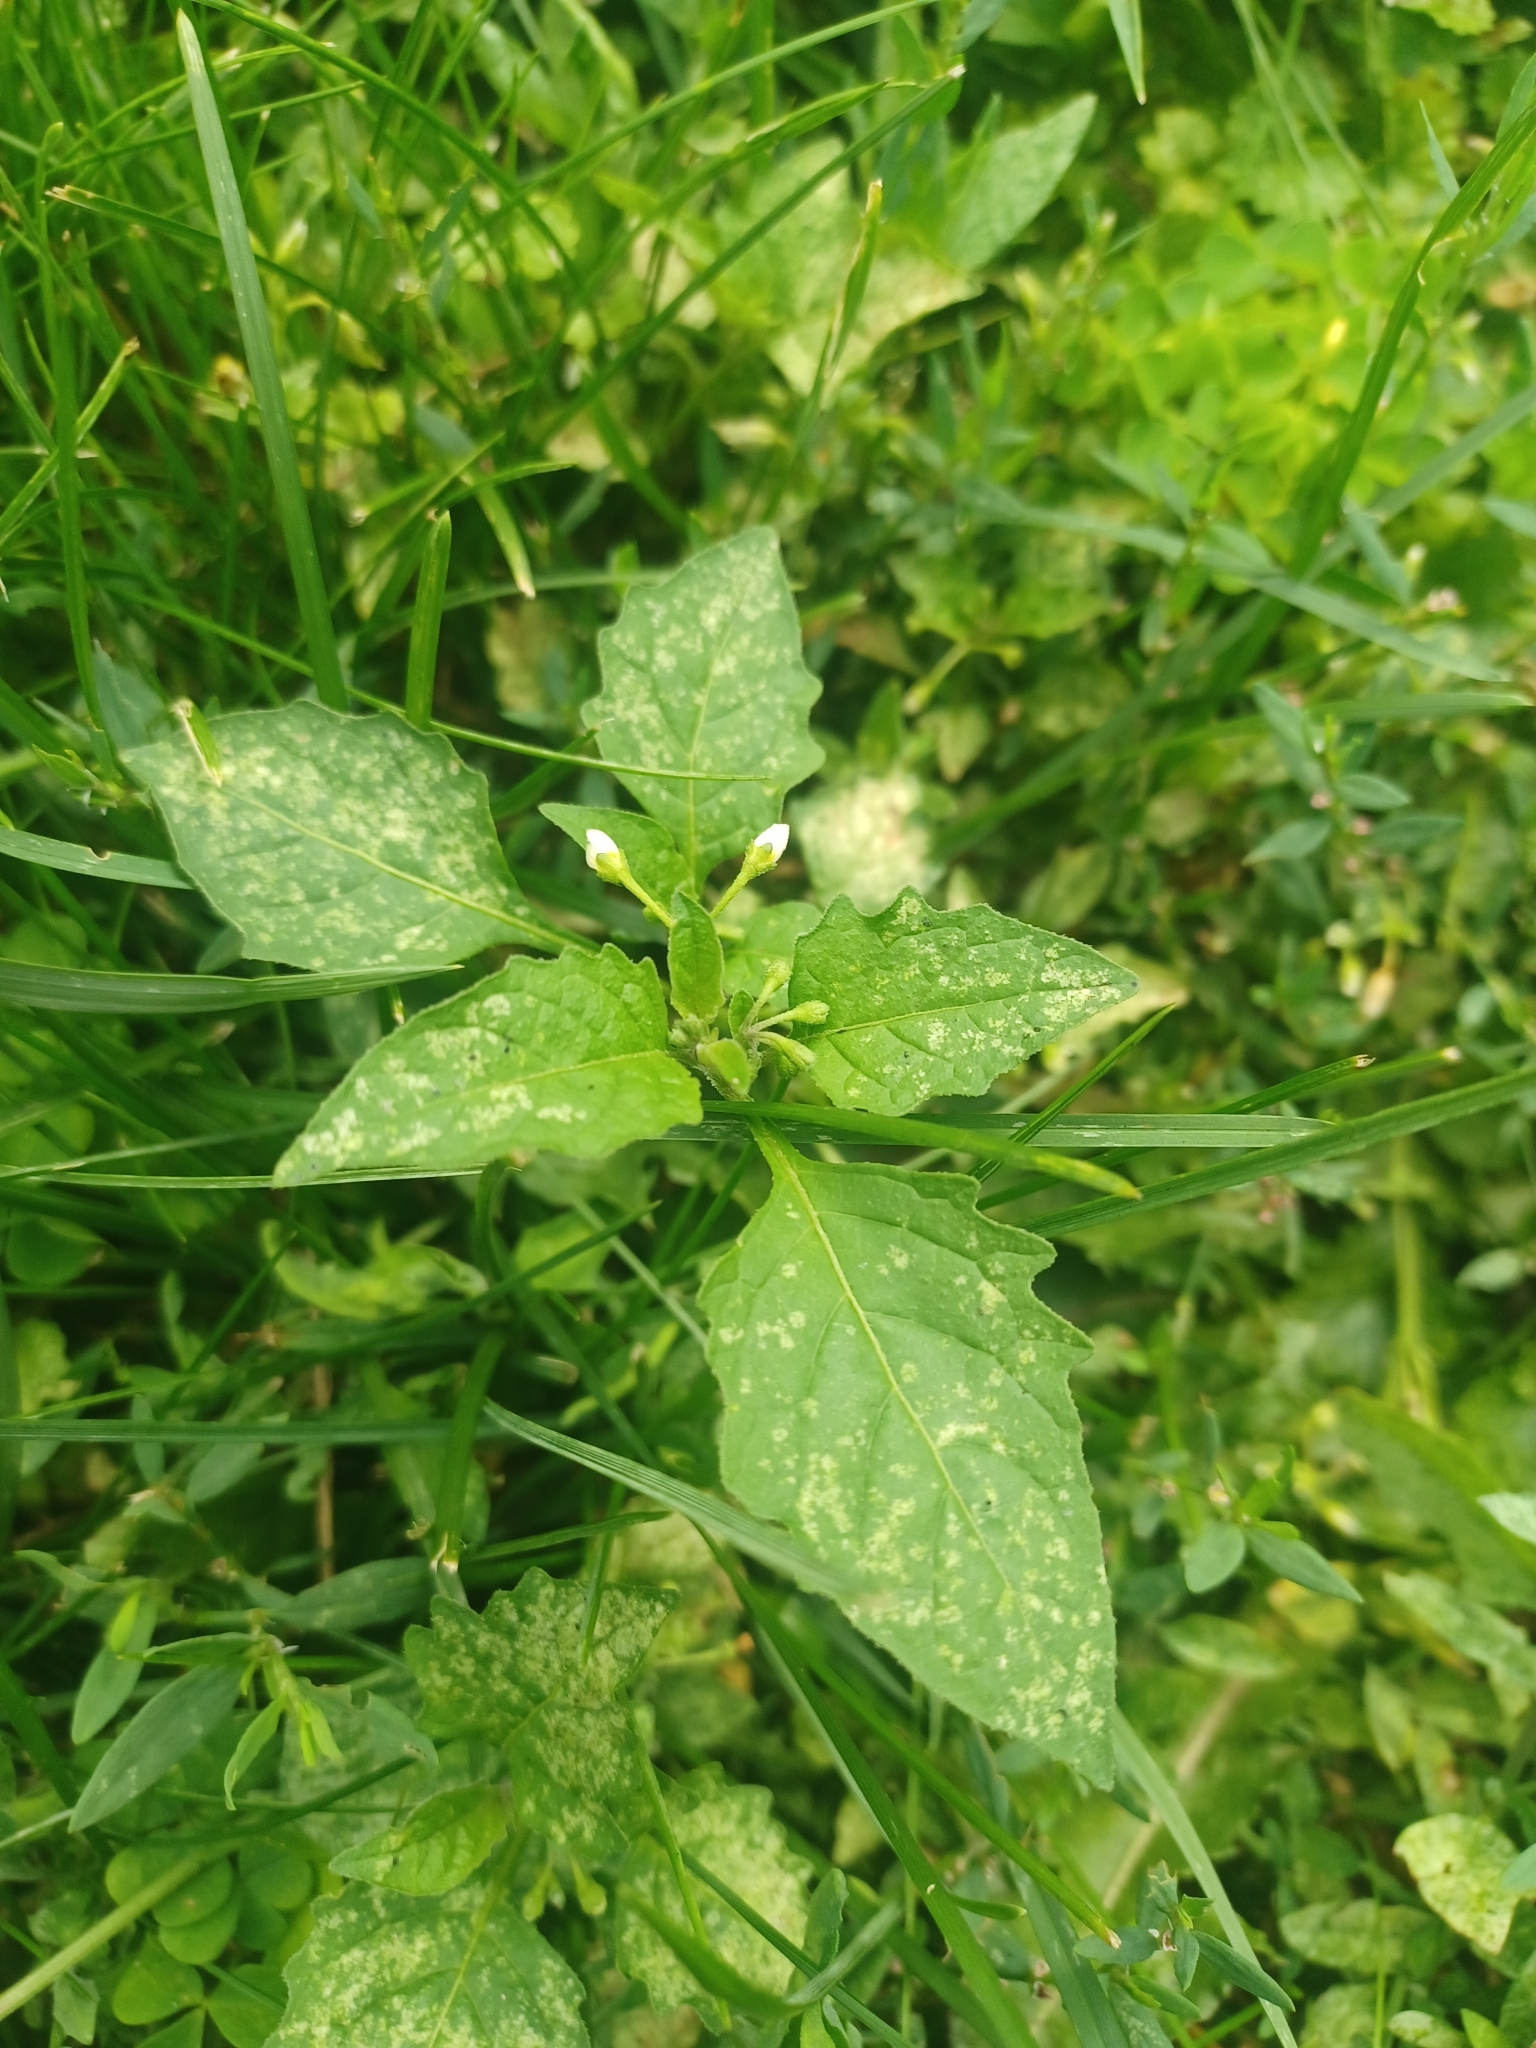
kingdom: Plantae
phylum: Tracheophyta
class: Magnoliopsida
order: Solanales
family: Solanaceae
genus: Solanum
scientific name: Solanum emulans
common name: Eastern black nightshade
